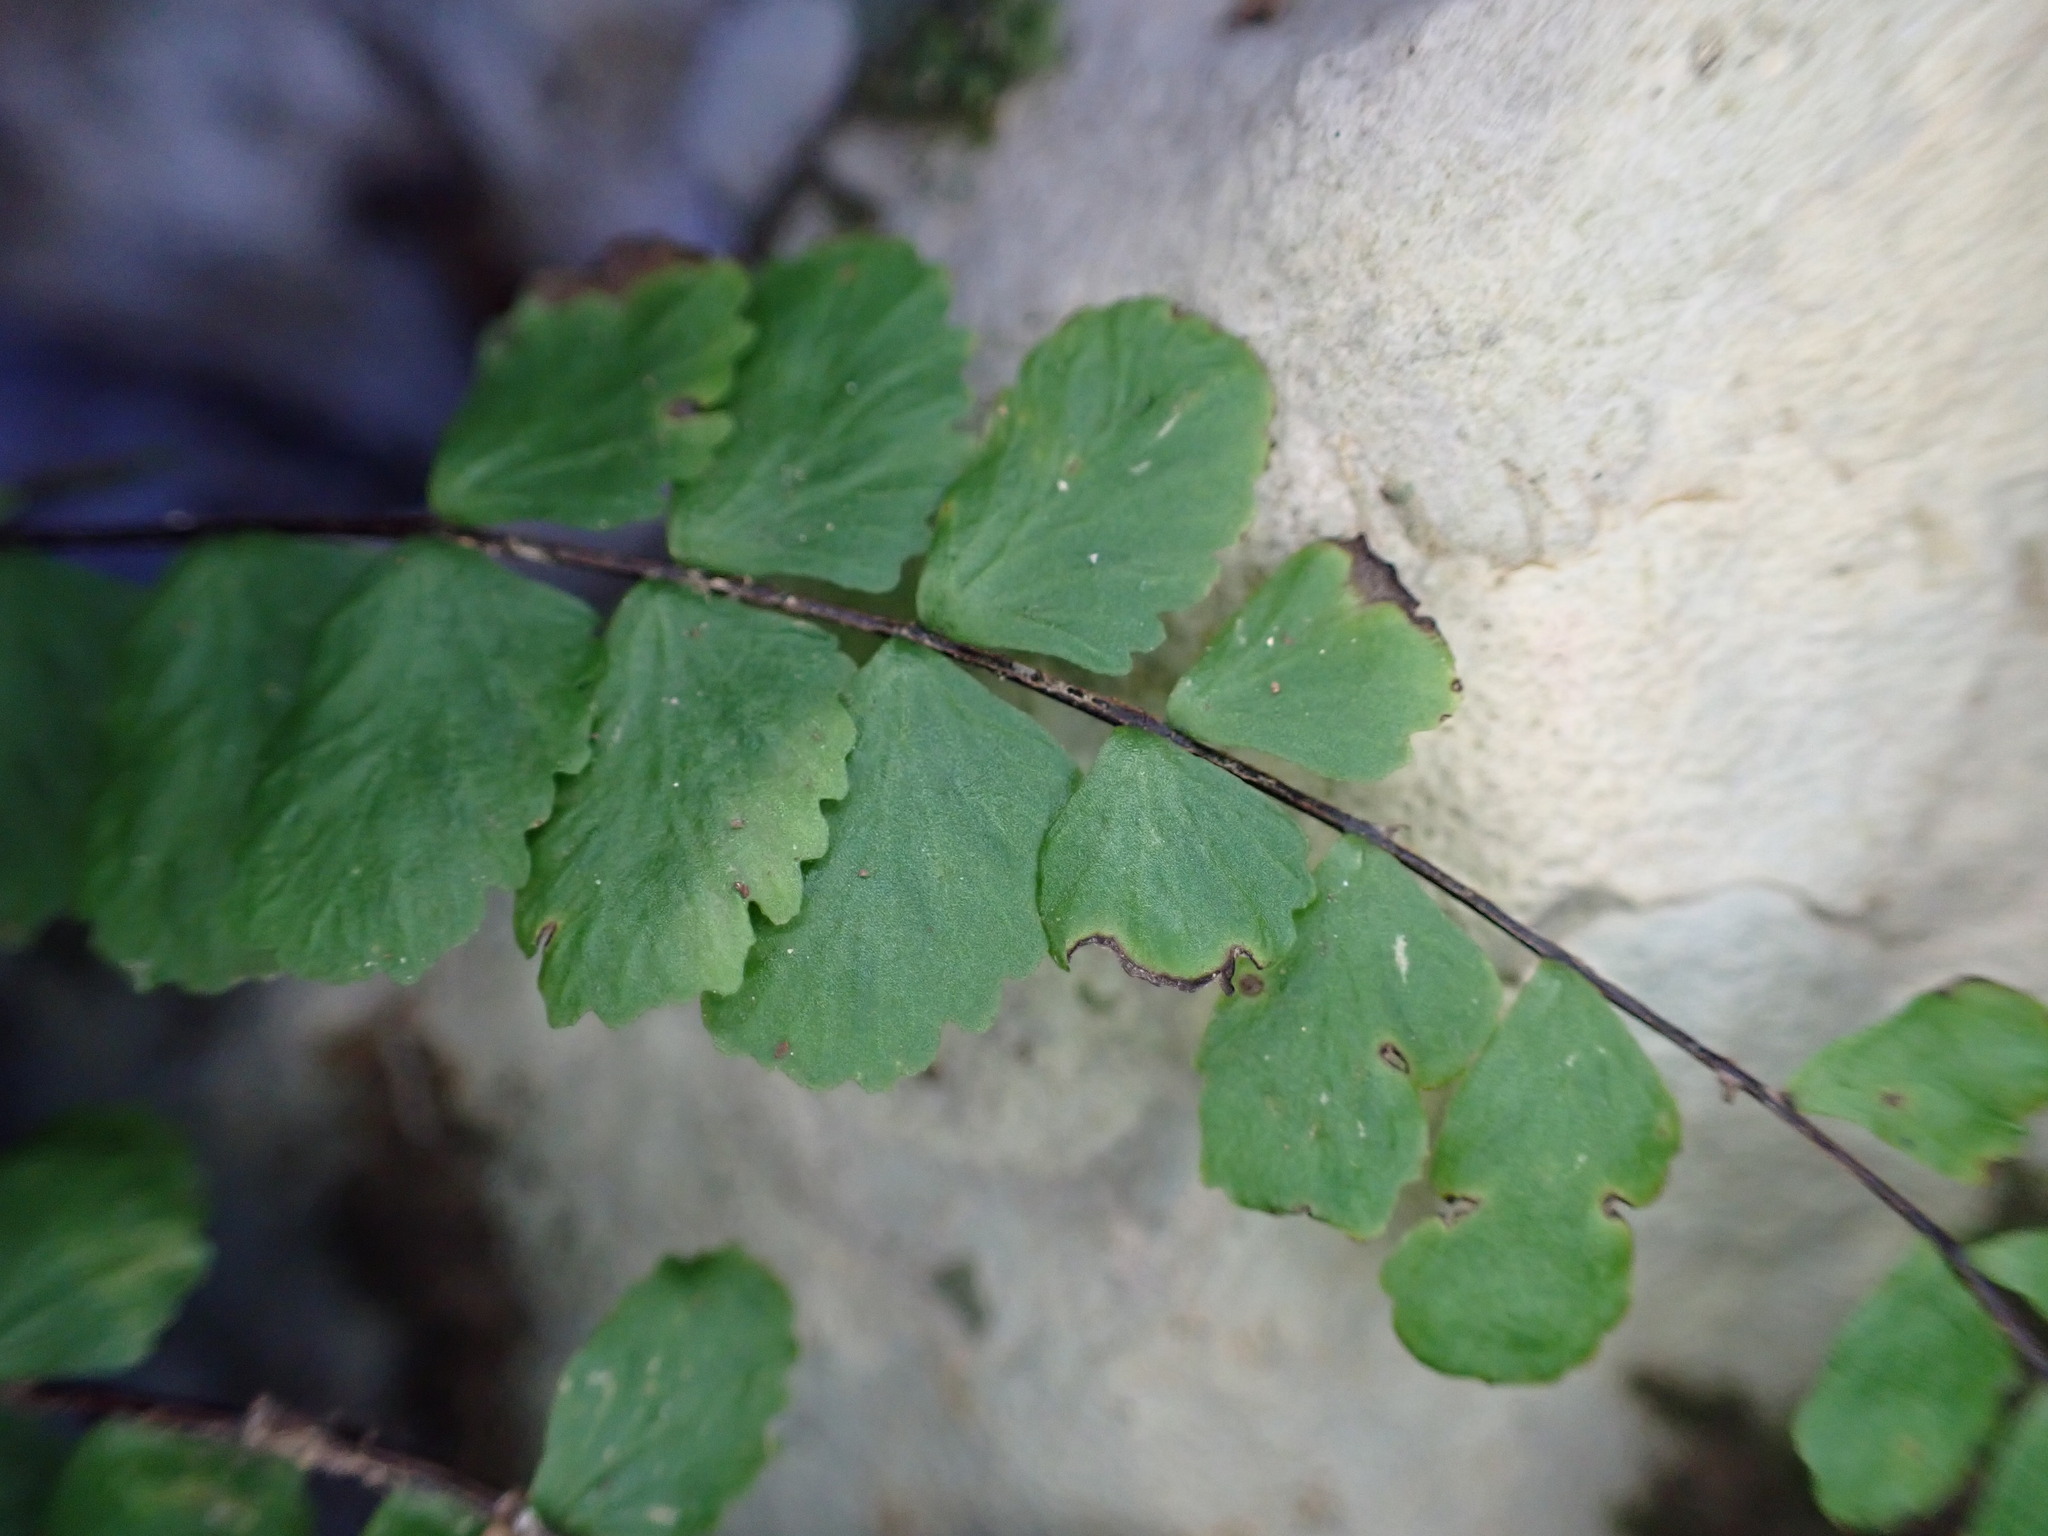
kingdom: Plantae
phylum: Tracheophyta
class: Polypodiopsida
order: Polypodiales
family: Aspleniaceae
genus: Asplenium
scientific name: Asplenium trichomanes
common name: Maidenhair spleenwort
